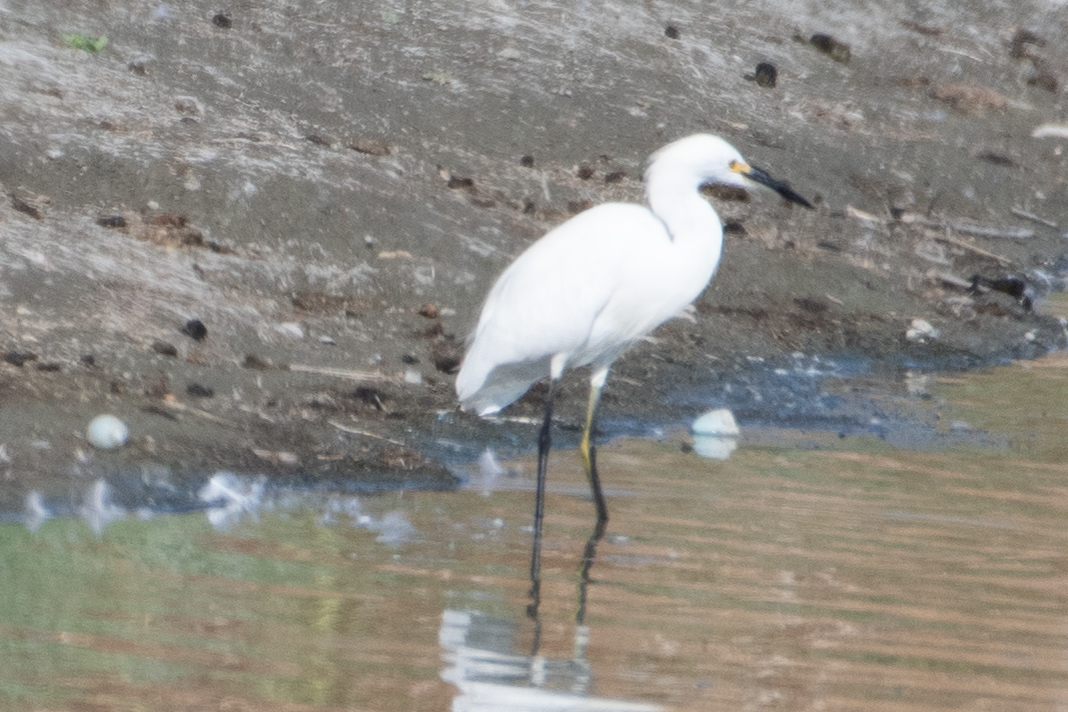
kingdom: Animalia
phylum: Chordata
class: Aves
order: Pelecaniformes
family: Ardeidae
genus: Egretta
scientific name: Egretta thula
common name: Snowy egret
